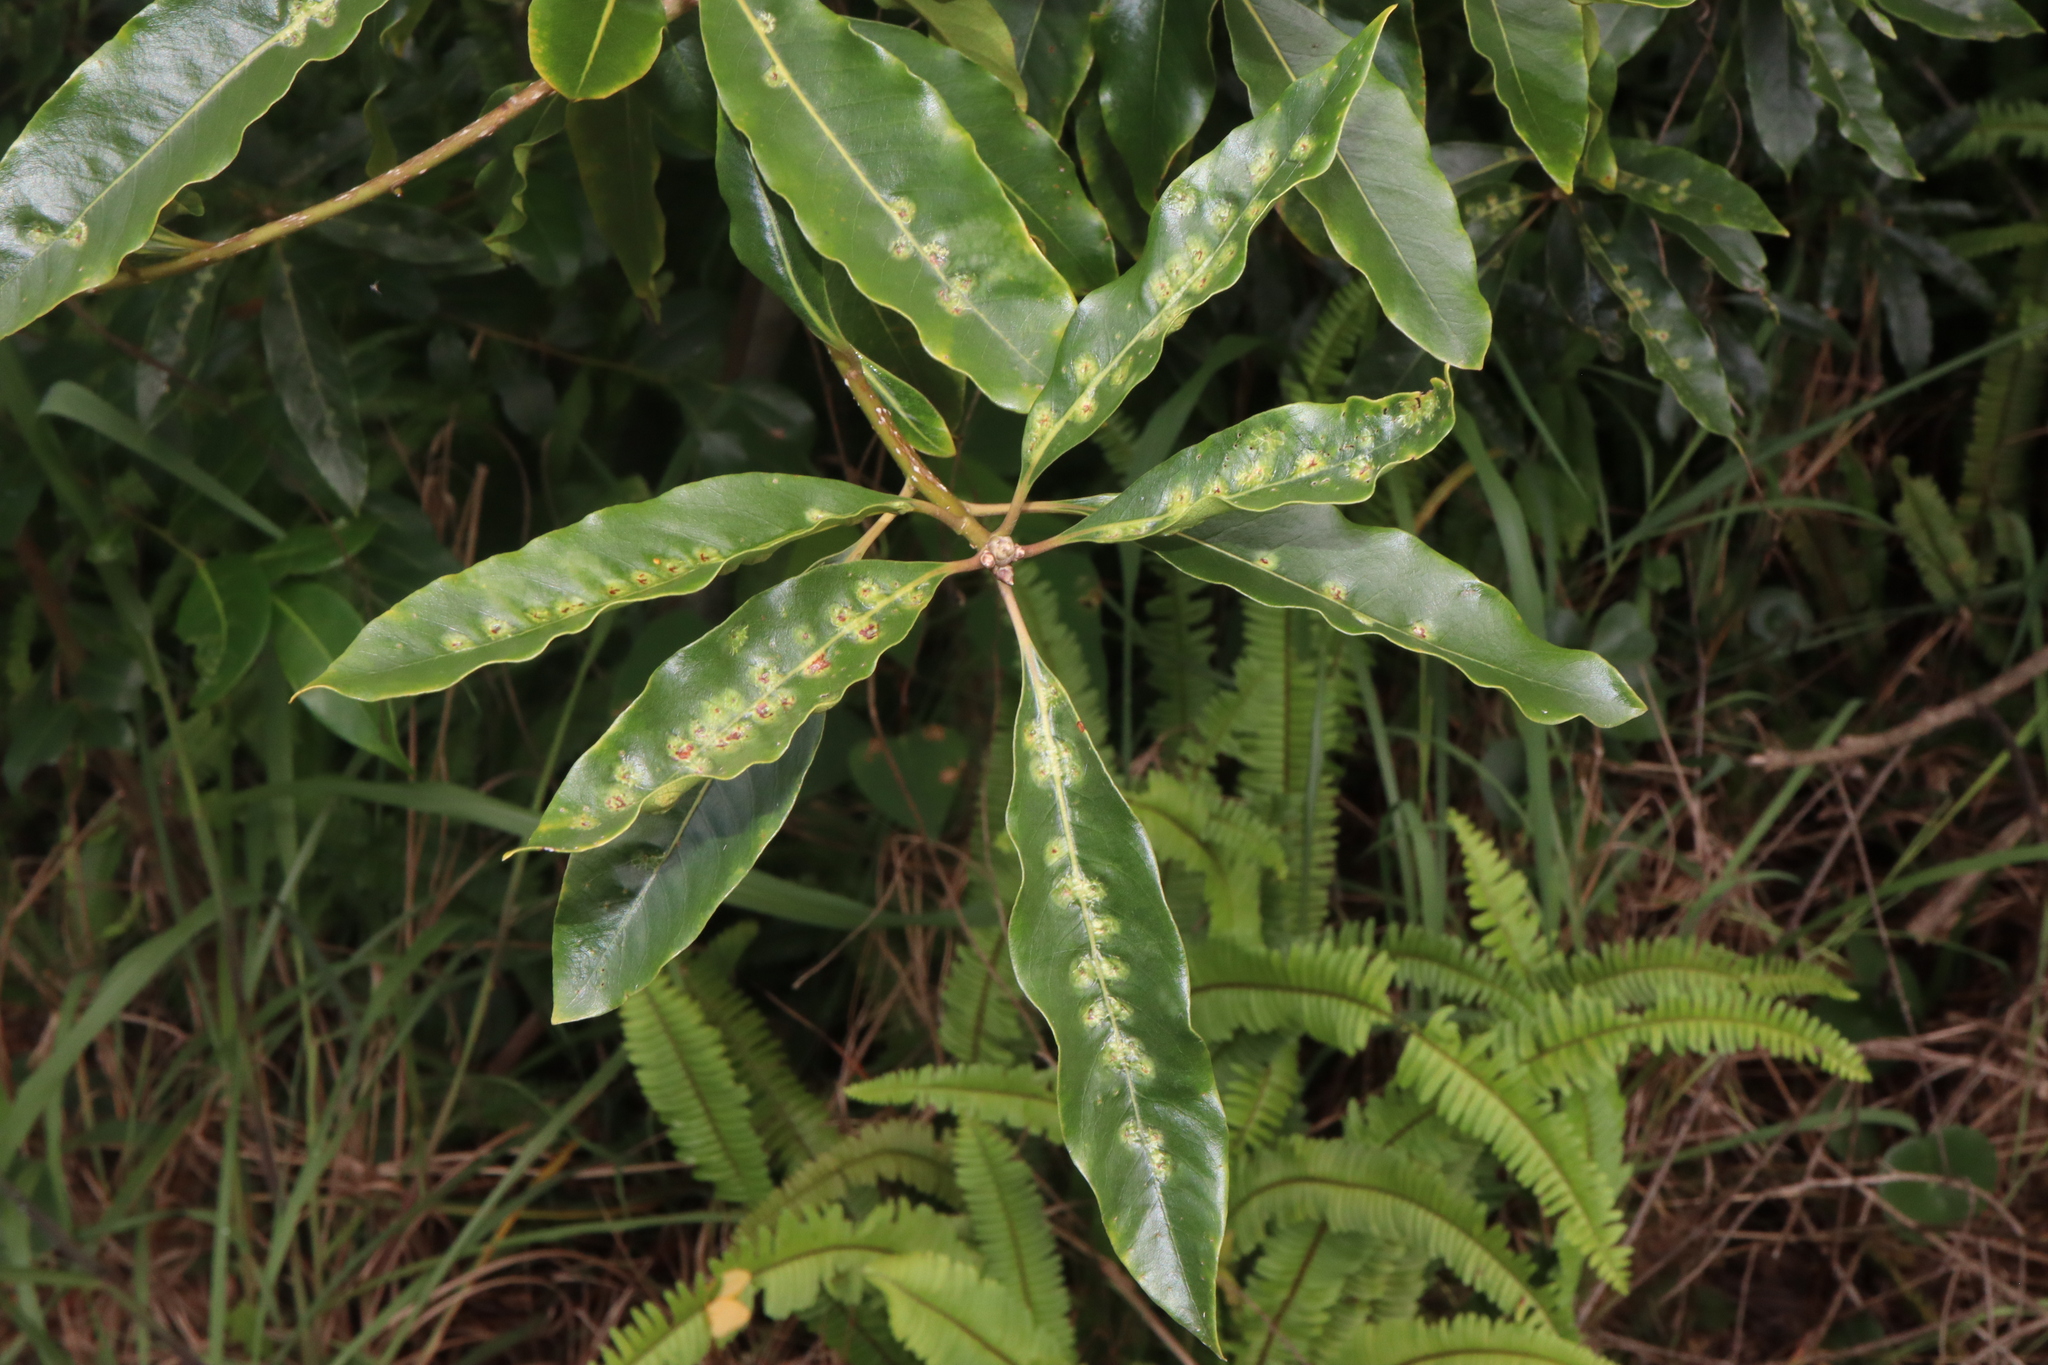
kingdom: Animalia
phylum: Arthropoda
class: Insecta
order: Diptera
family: Agromyzidae
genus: Phytoliriomyza
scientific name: Phytoliriomyza pittosporophylli
